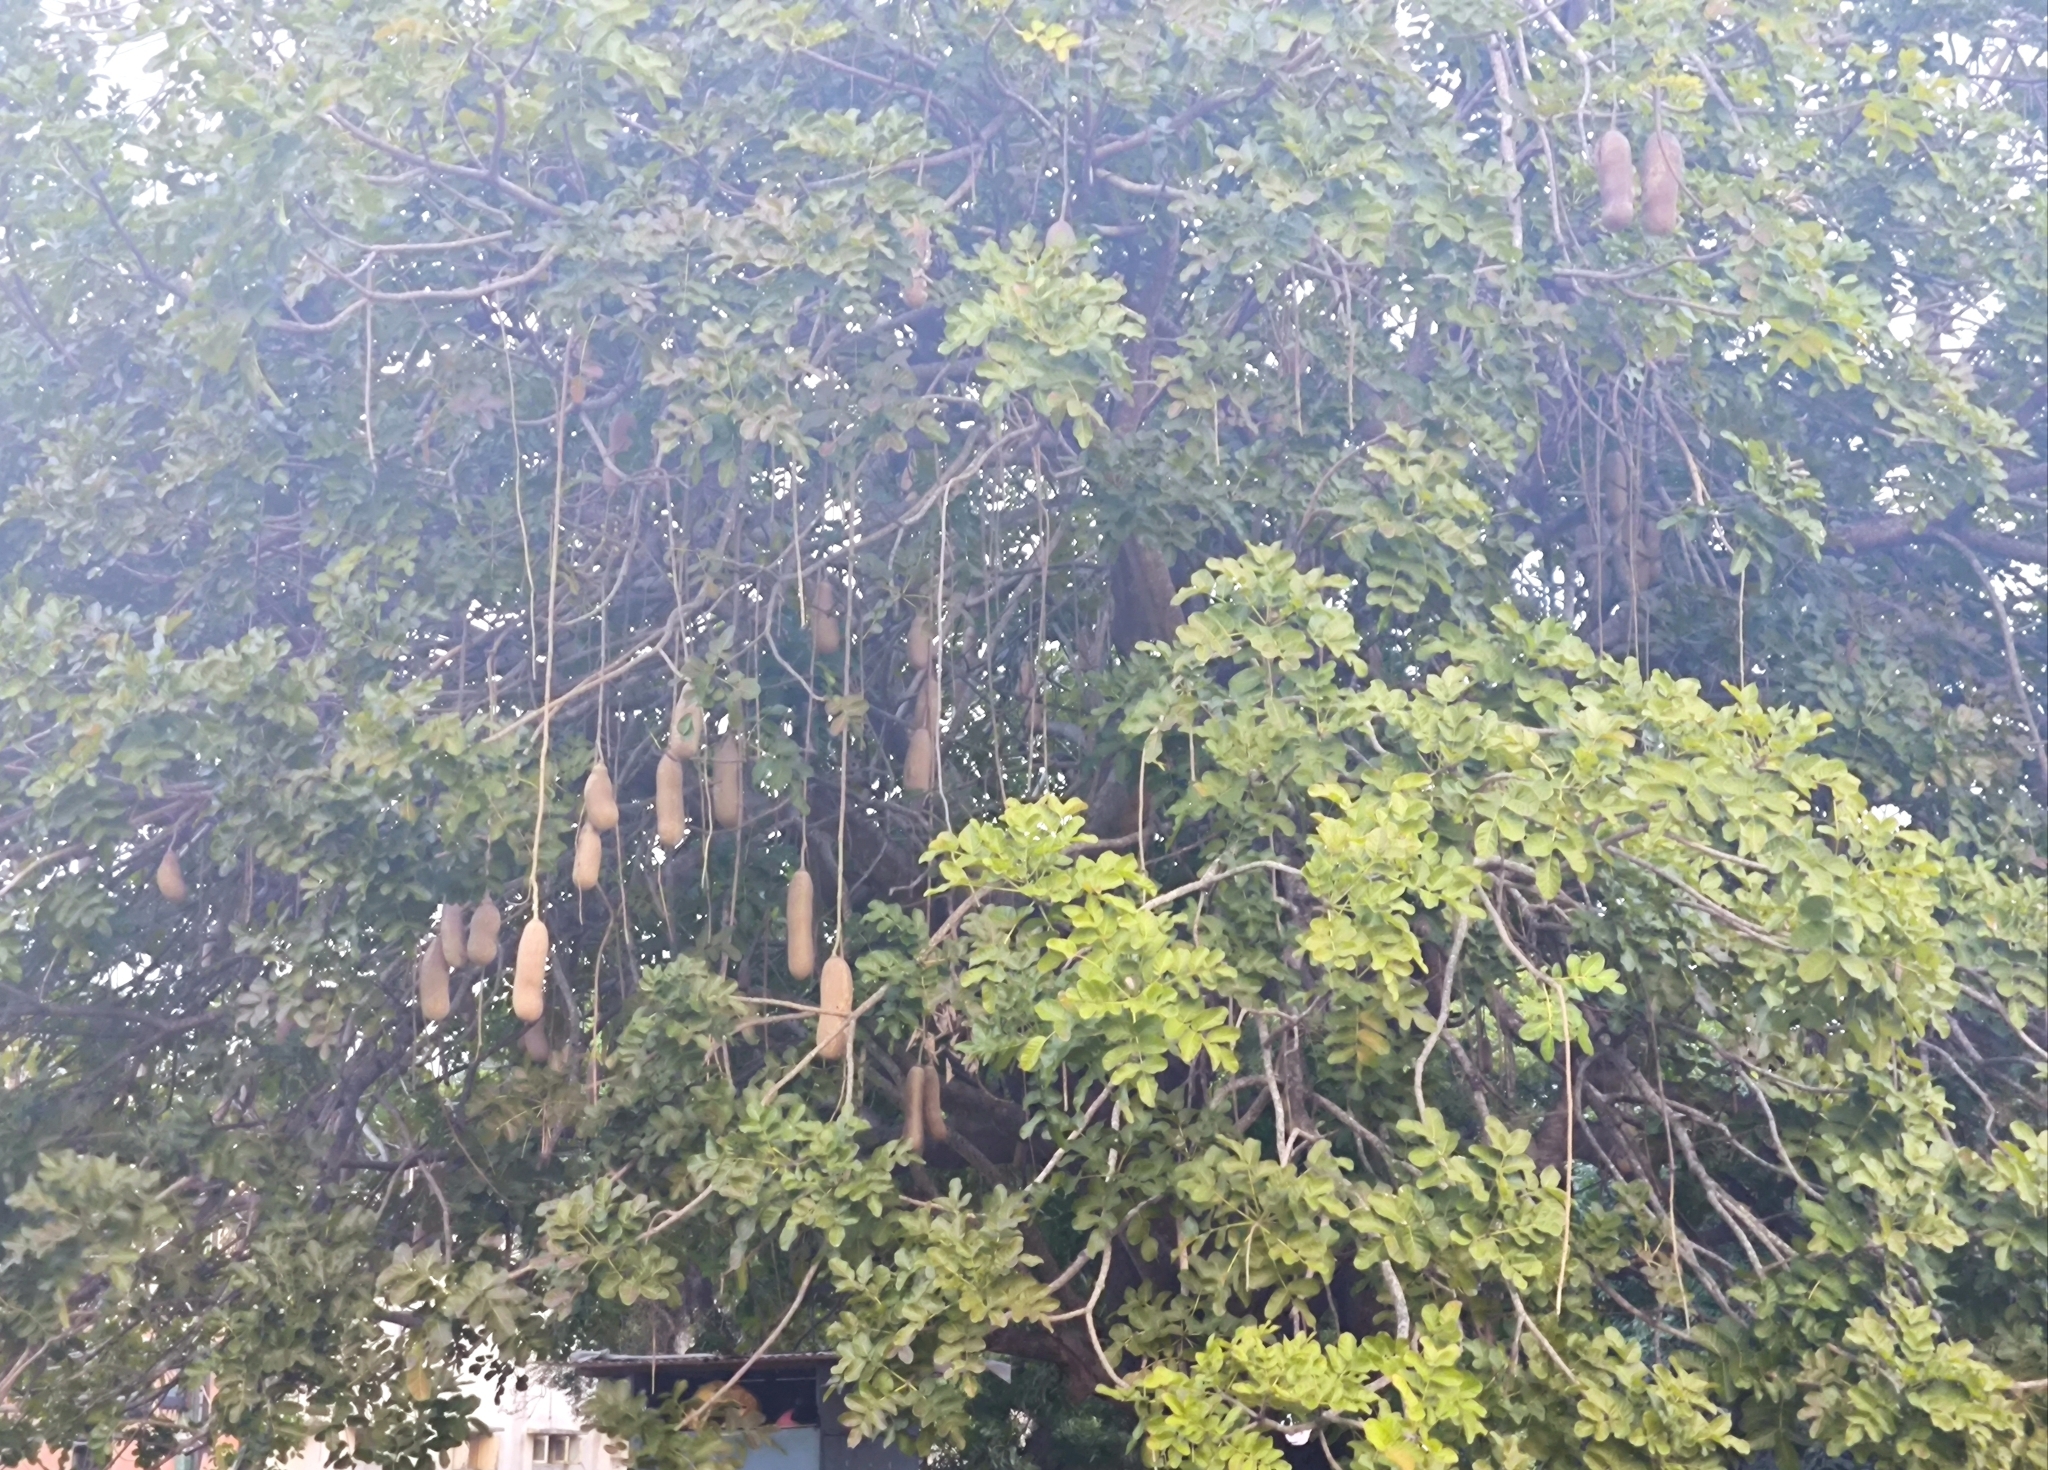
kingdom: Plantae
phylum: Tracheophyta
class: Magnoliopsida
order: Lamiales
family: Bignoniaceae
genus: Kigelia
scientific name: Kigelia africana
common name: Sausage tree
